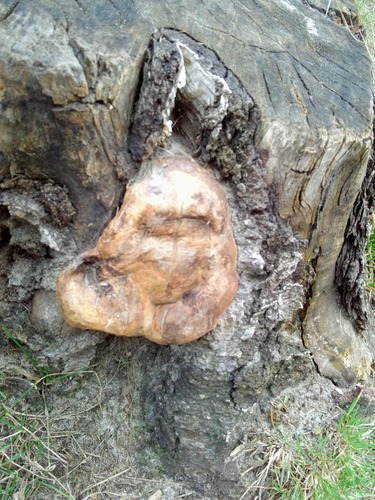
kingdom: Fungi
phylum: Basidiomycota
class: Agaricomycetes
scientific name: Agaricomycetes
